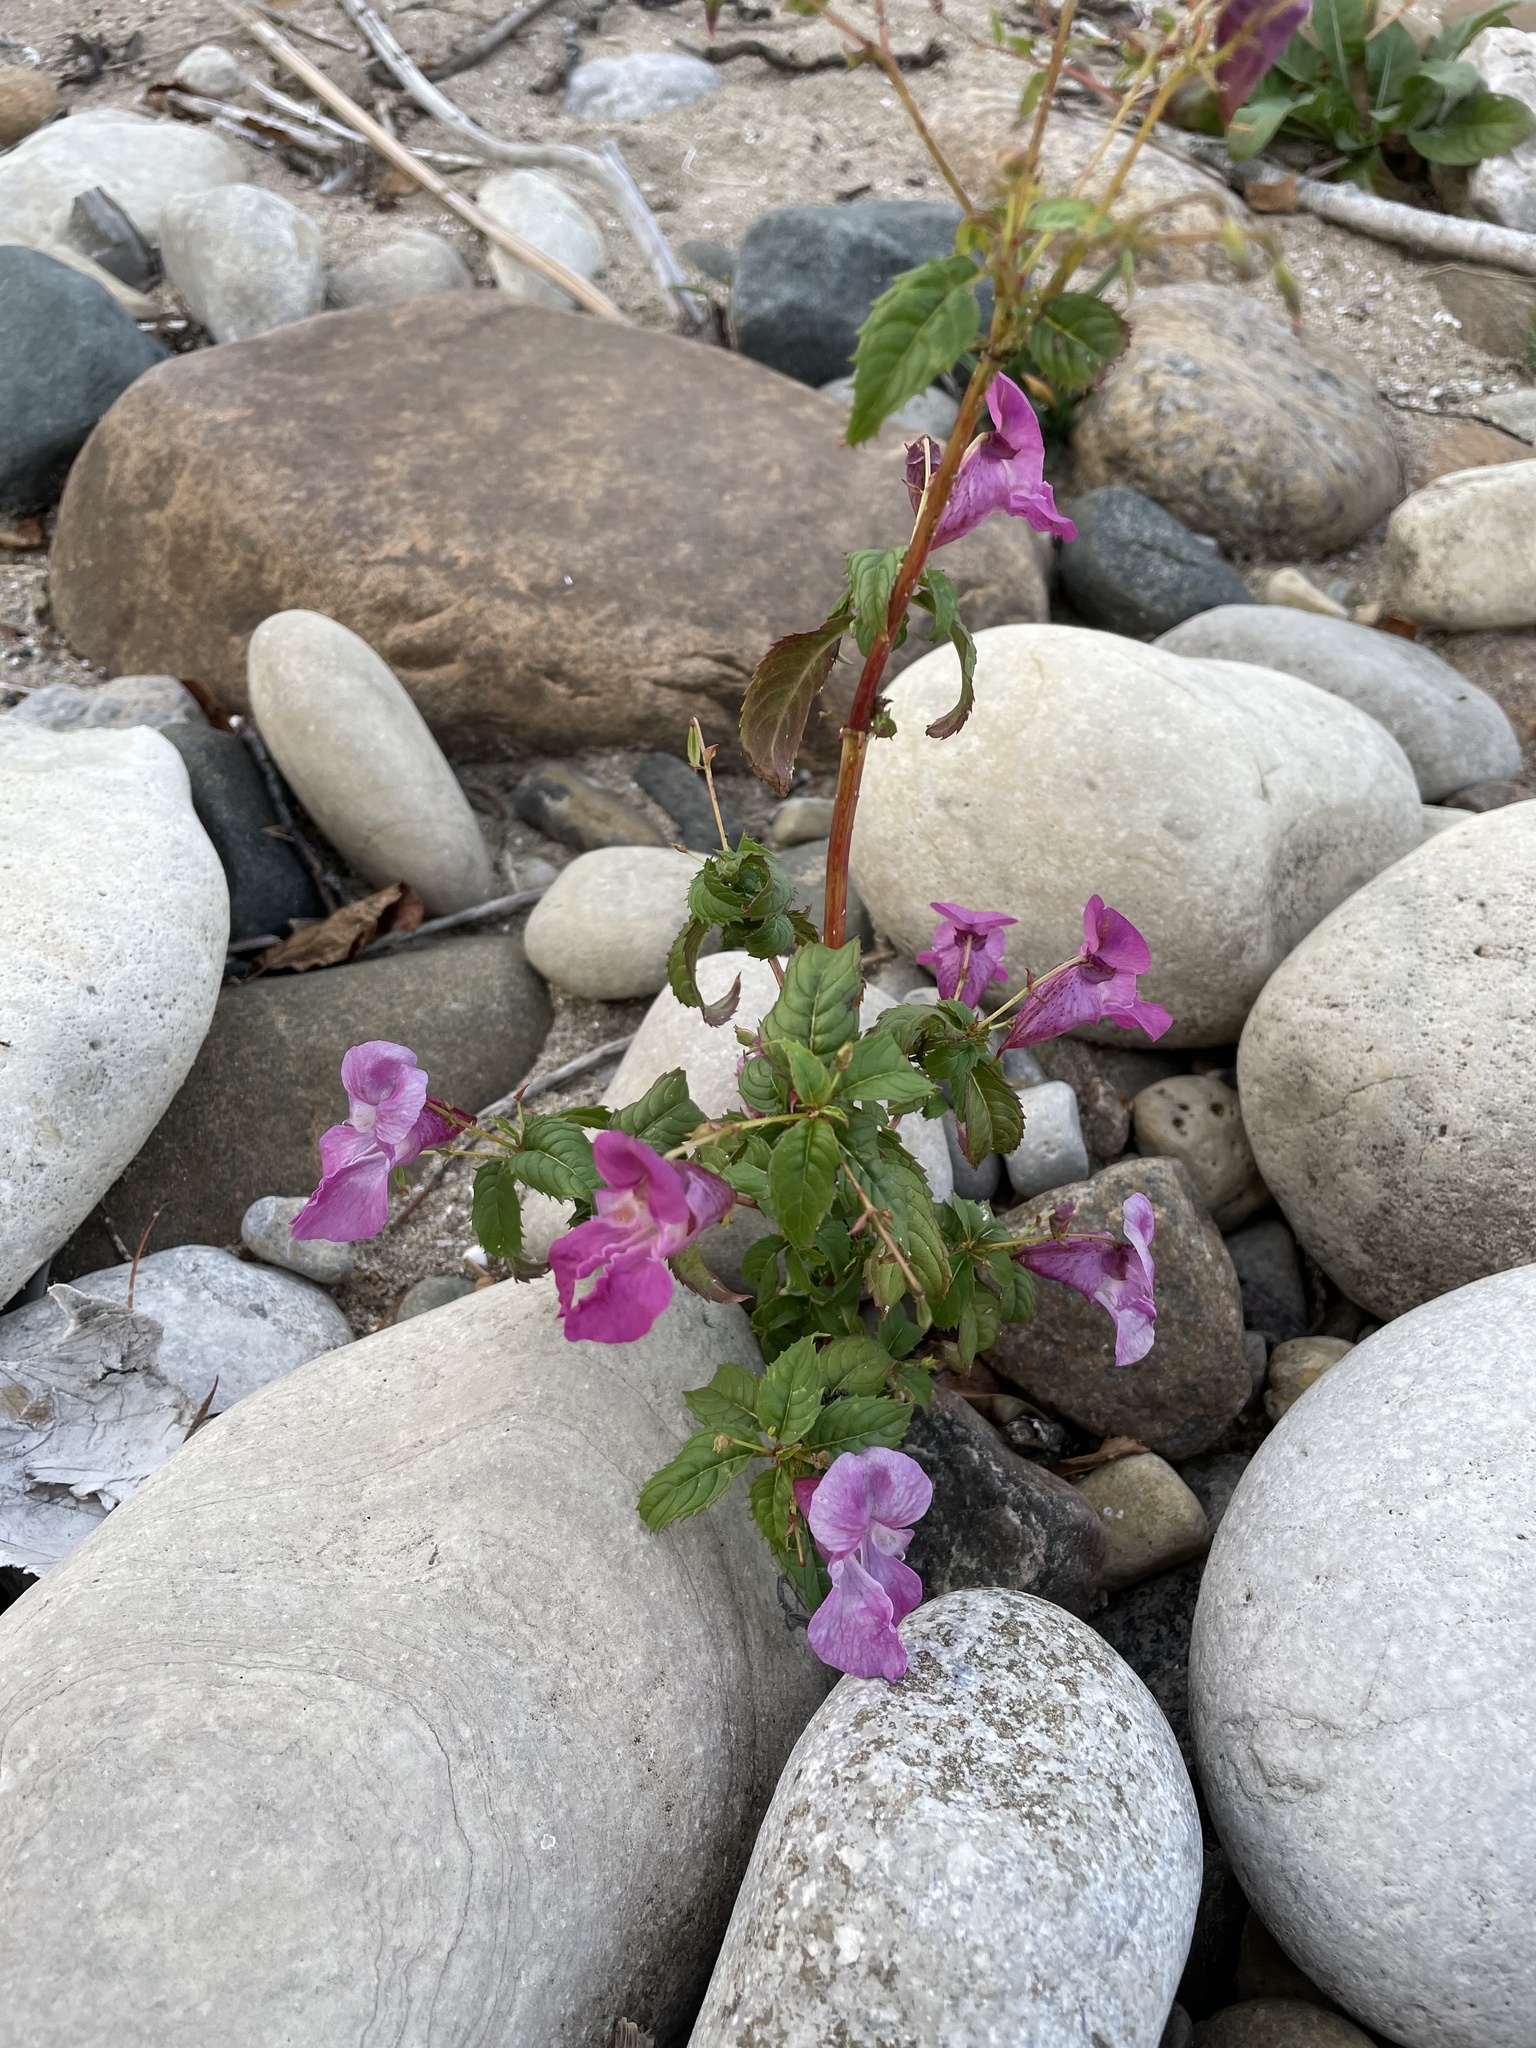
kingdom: Plantae
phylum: Tracheophyta
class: Magnoliopsida
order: Ericales
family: Balsaminaceae
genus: Impatiens
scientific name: Impatiens glandulifera
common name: Himalayan balsam
